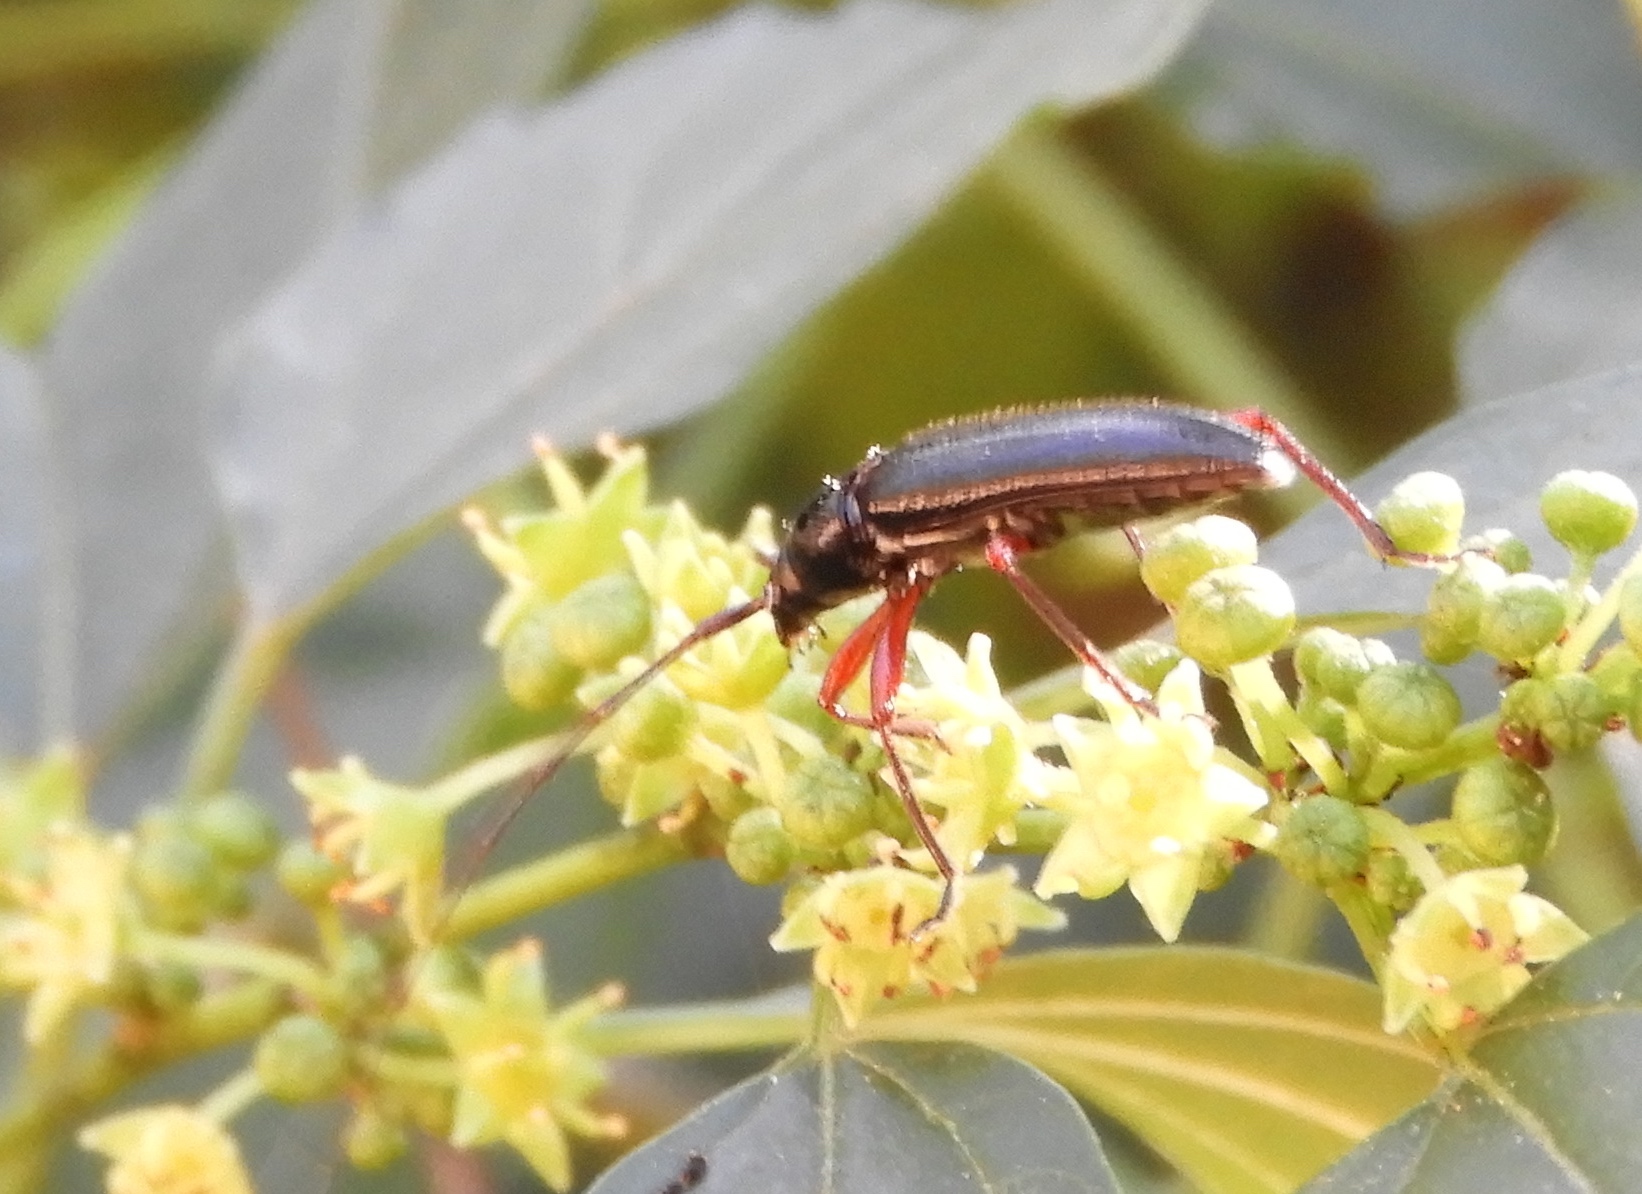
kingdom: Animalia
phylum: Arthropoda
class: Insecta
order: Coleoptera
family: Cerambycidae
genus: Stenosphenus
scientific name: Stenosphenus
